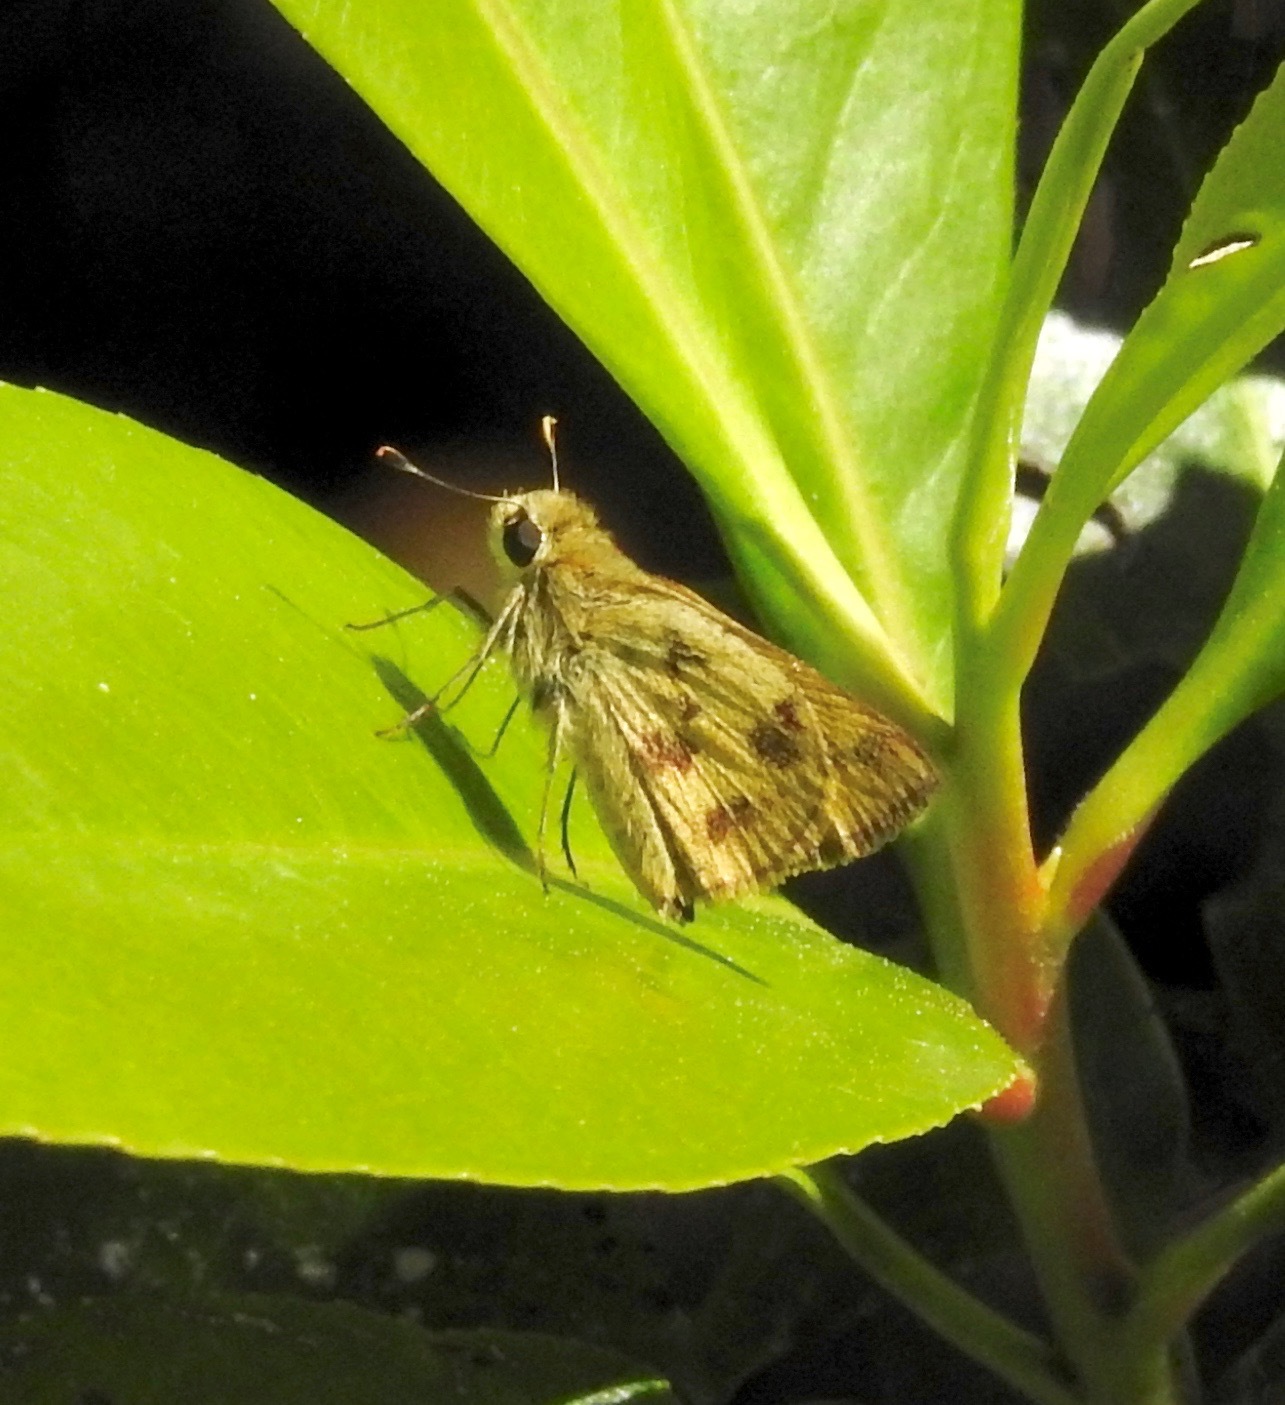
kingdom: Animalia
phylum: Arthropoda
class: Insecta
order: Lepidoptera
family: Hesperiidae
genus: Polites
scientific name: Polites vibex
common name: Whirlabout
